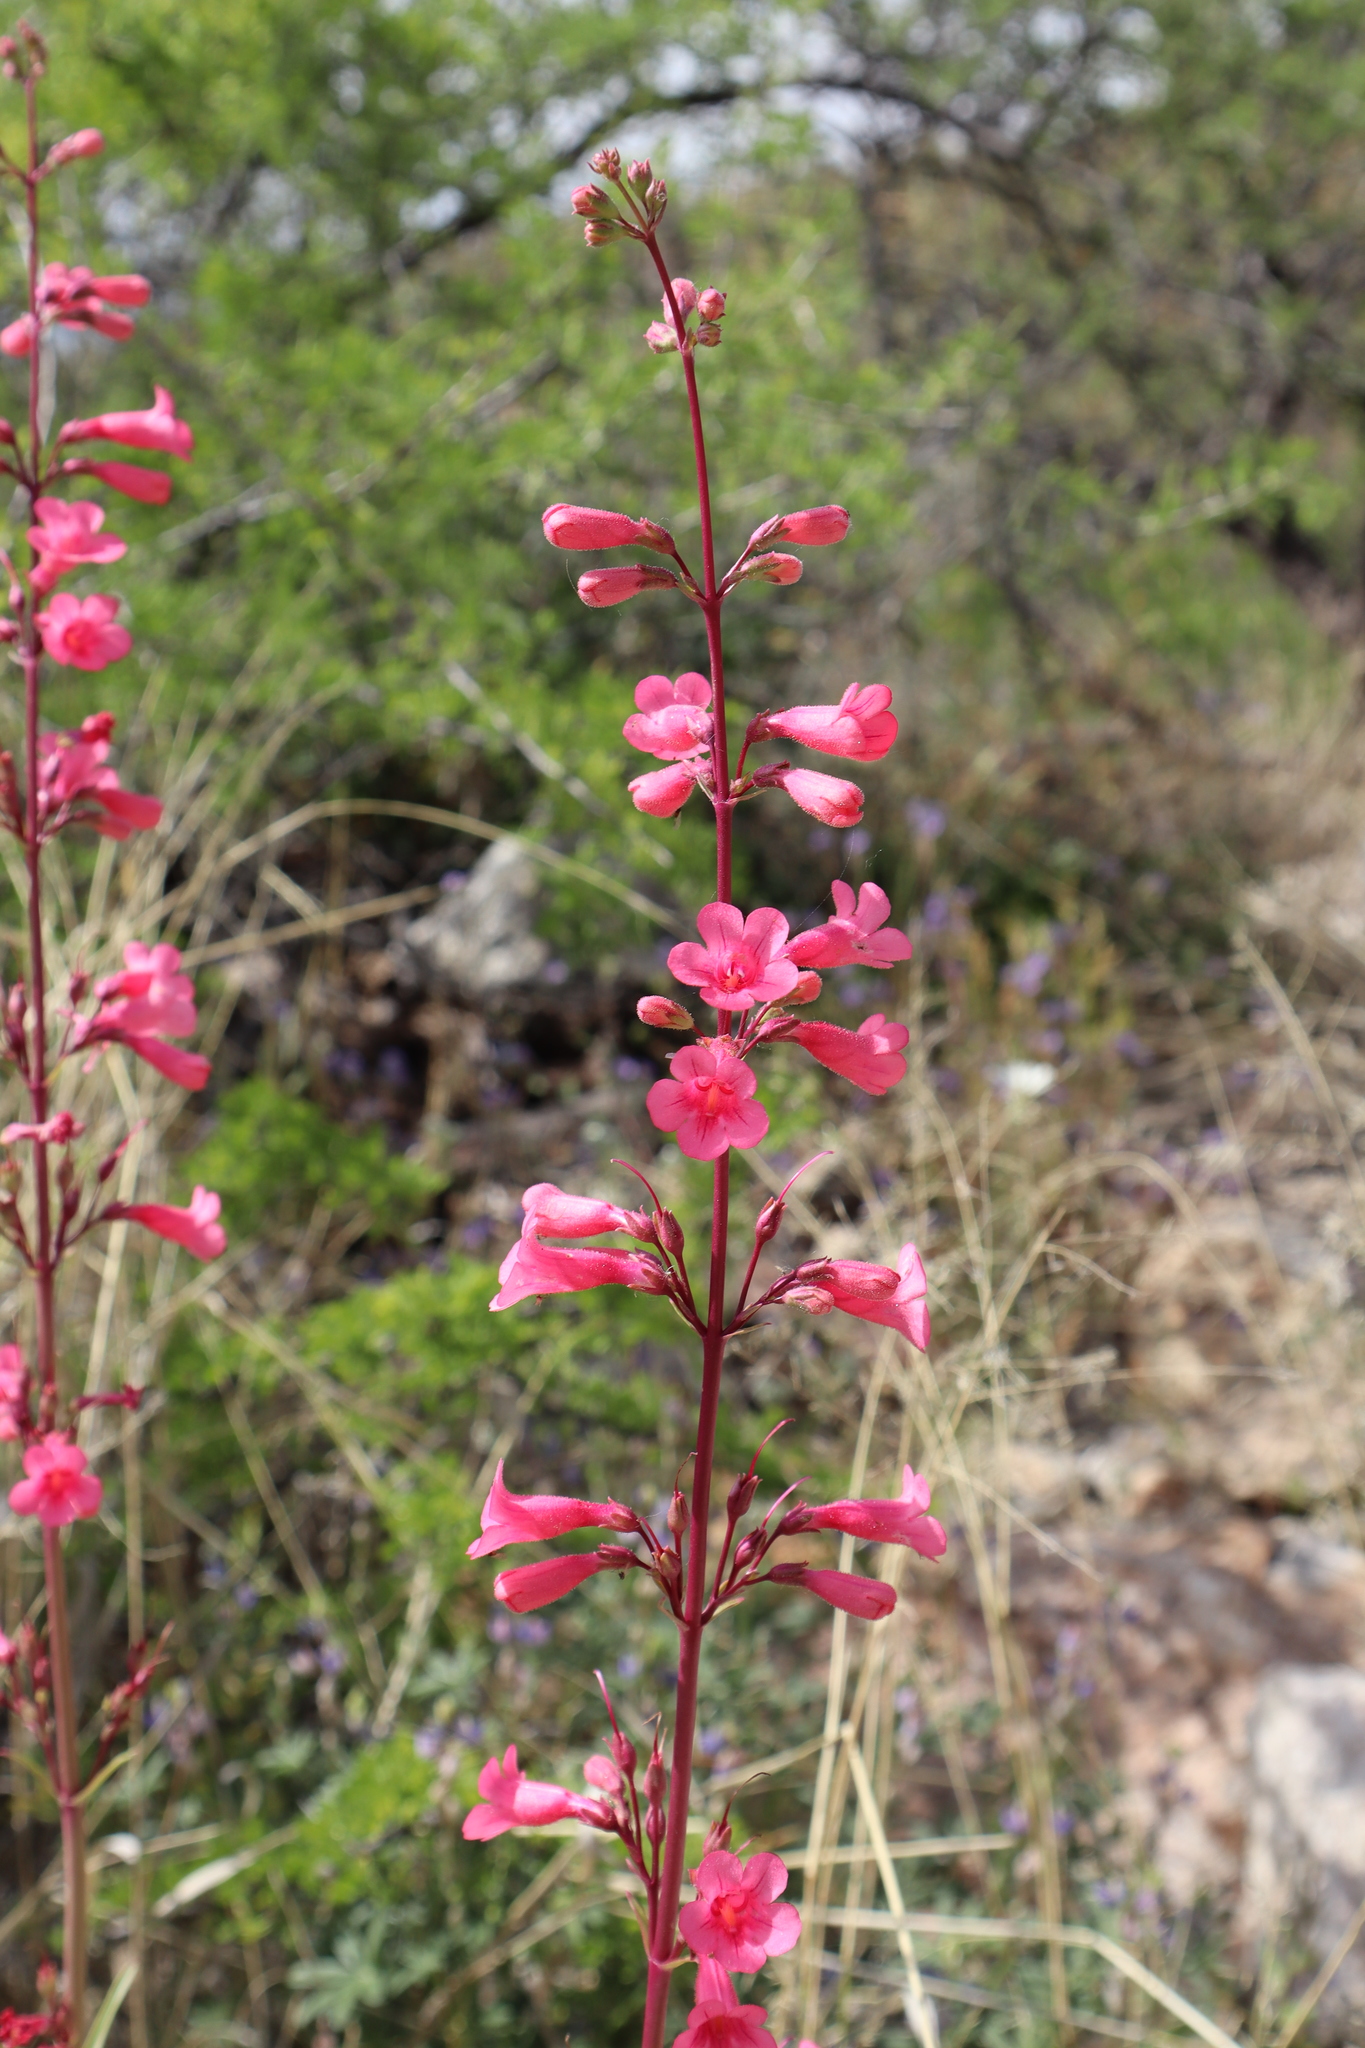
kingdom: Plantae
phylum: Tracheophyta
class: Magnoliopsida
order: Lamiales
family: Plantaginaceae
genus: Penstemon
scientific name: Penstemon parryi
